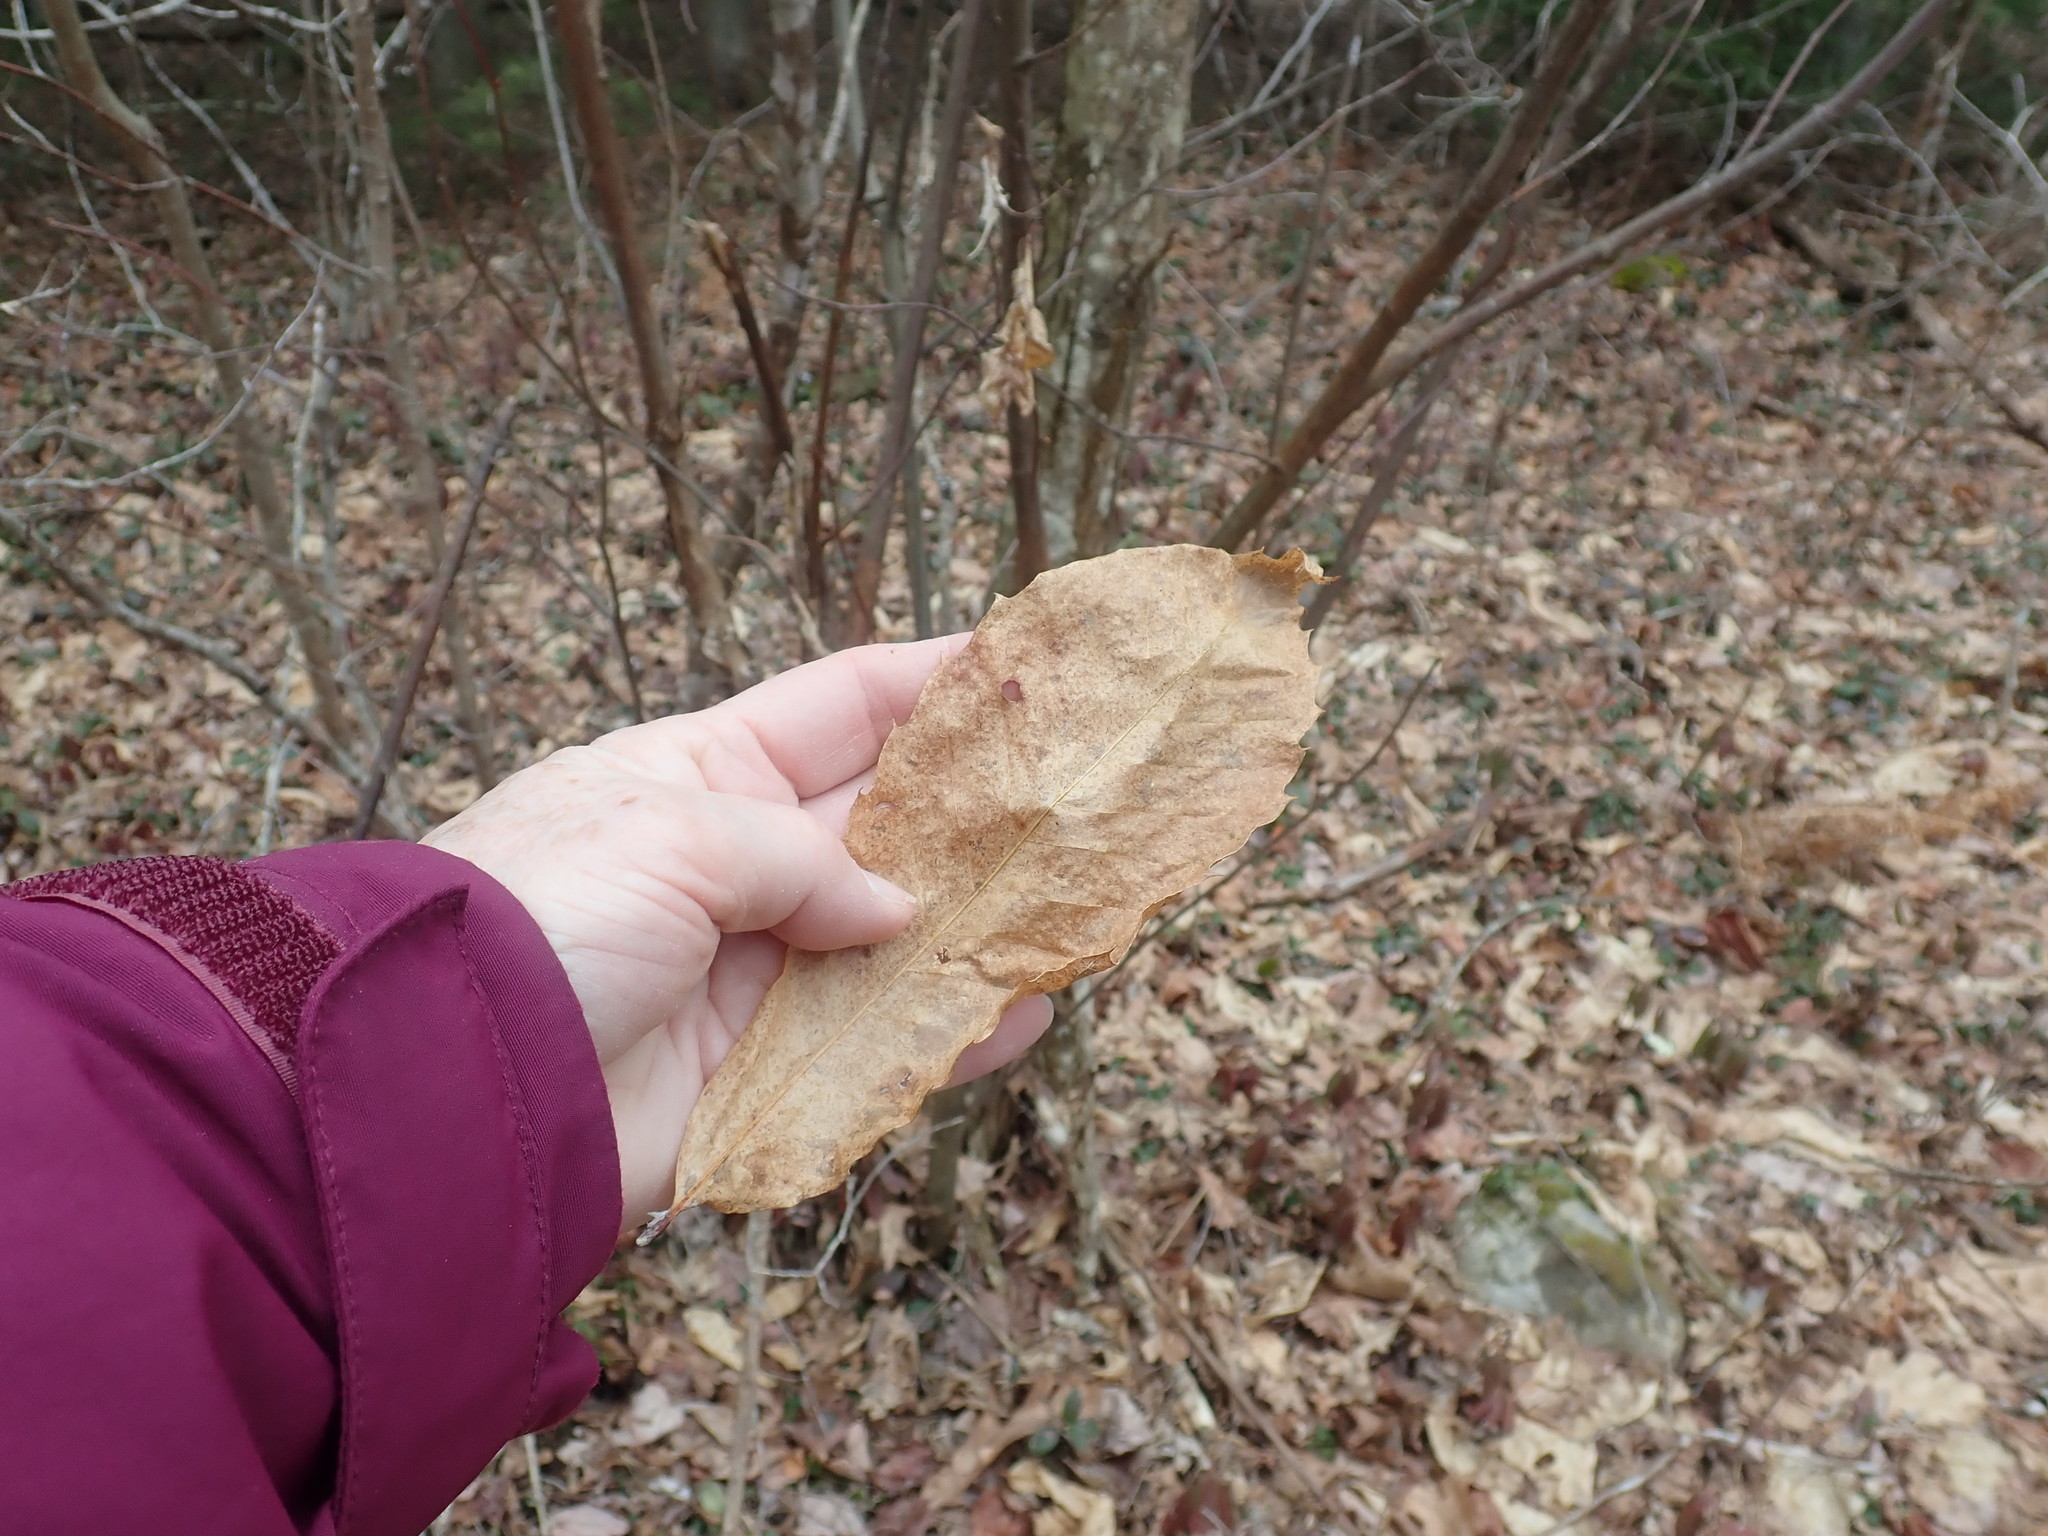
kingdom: Plantae
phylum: Tracheophyta
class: Magnoliopsida
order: Fagales
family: Fagaceae
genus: Castanea
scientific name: Castanea dentata
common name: American chestnut
